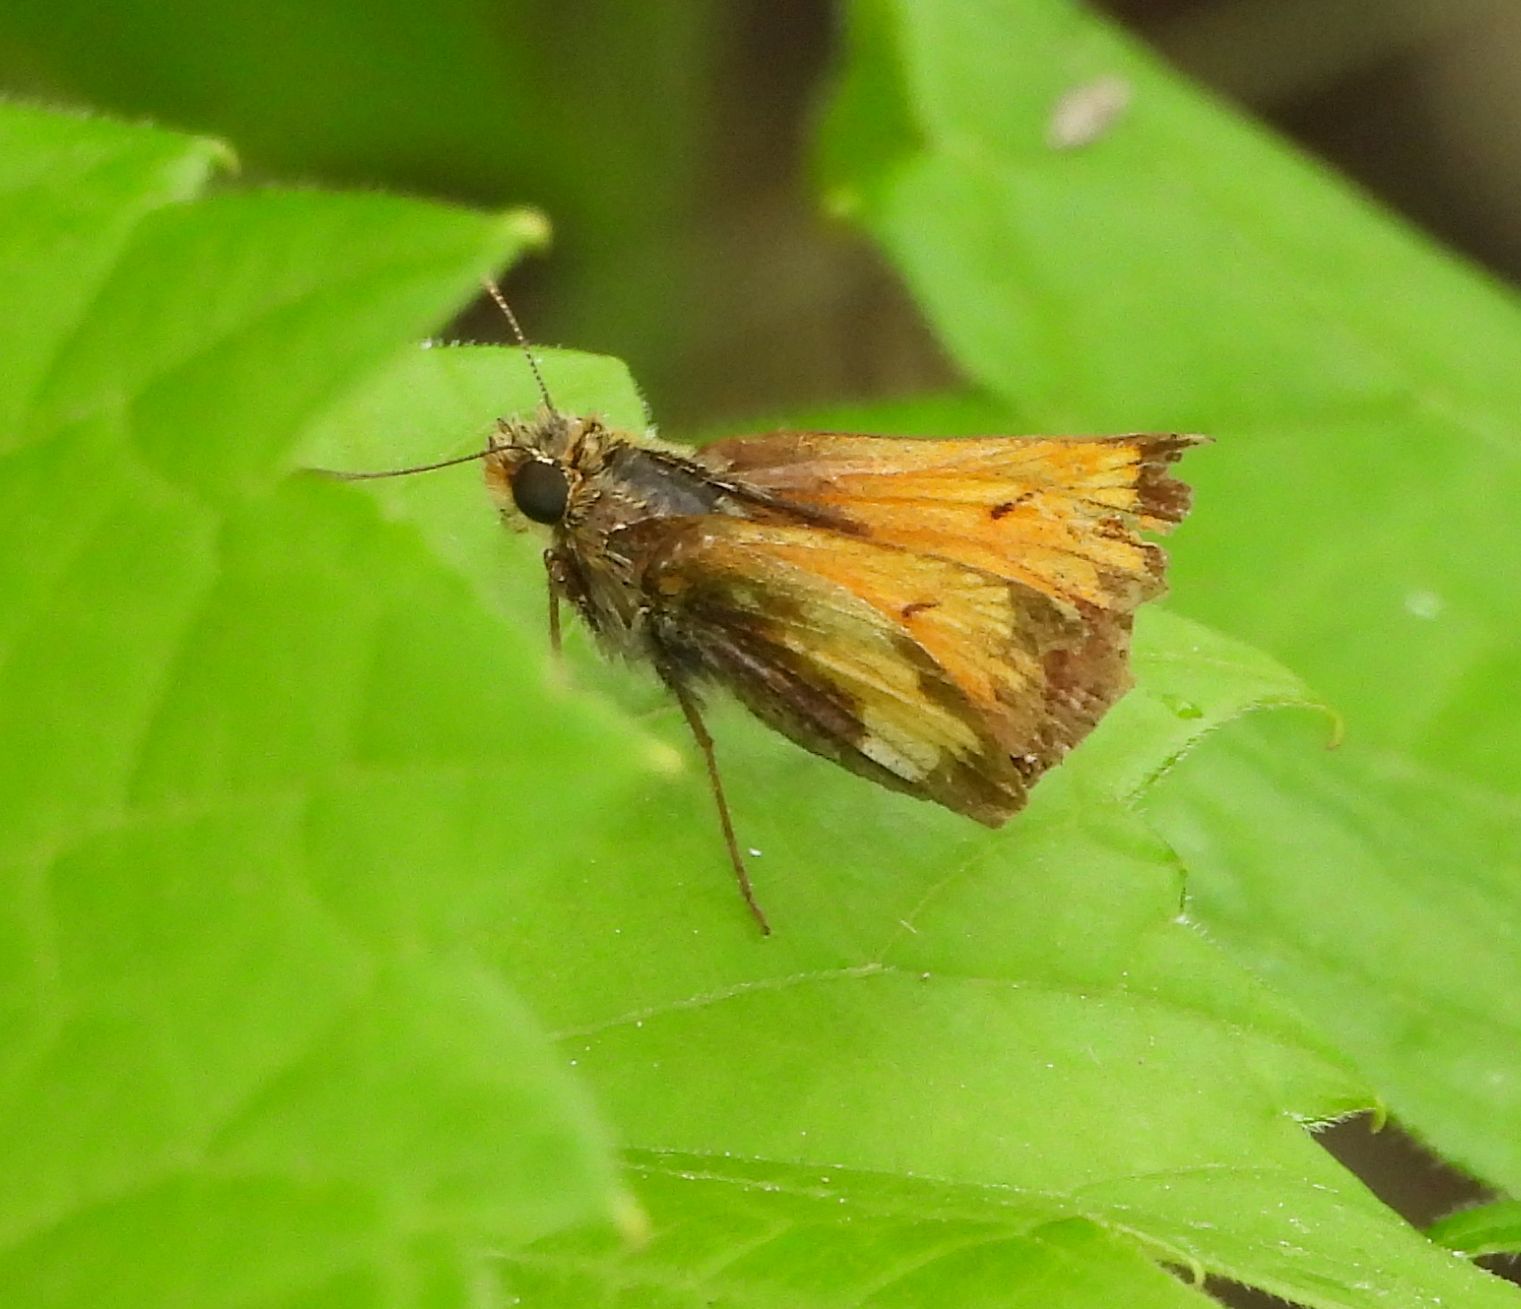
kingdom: Animalia
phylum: Arthropoda
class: Insecta
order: Lepidoptera
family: Hesperiidae
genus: Lon
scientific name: Lon hobomok
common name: Hobomok skipper
